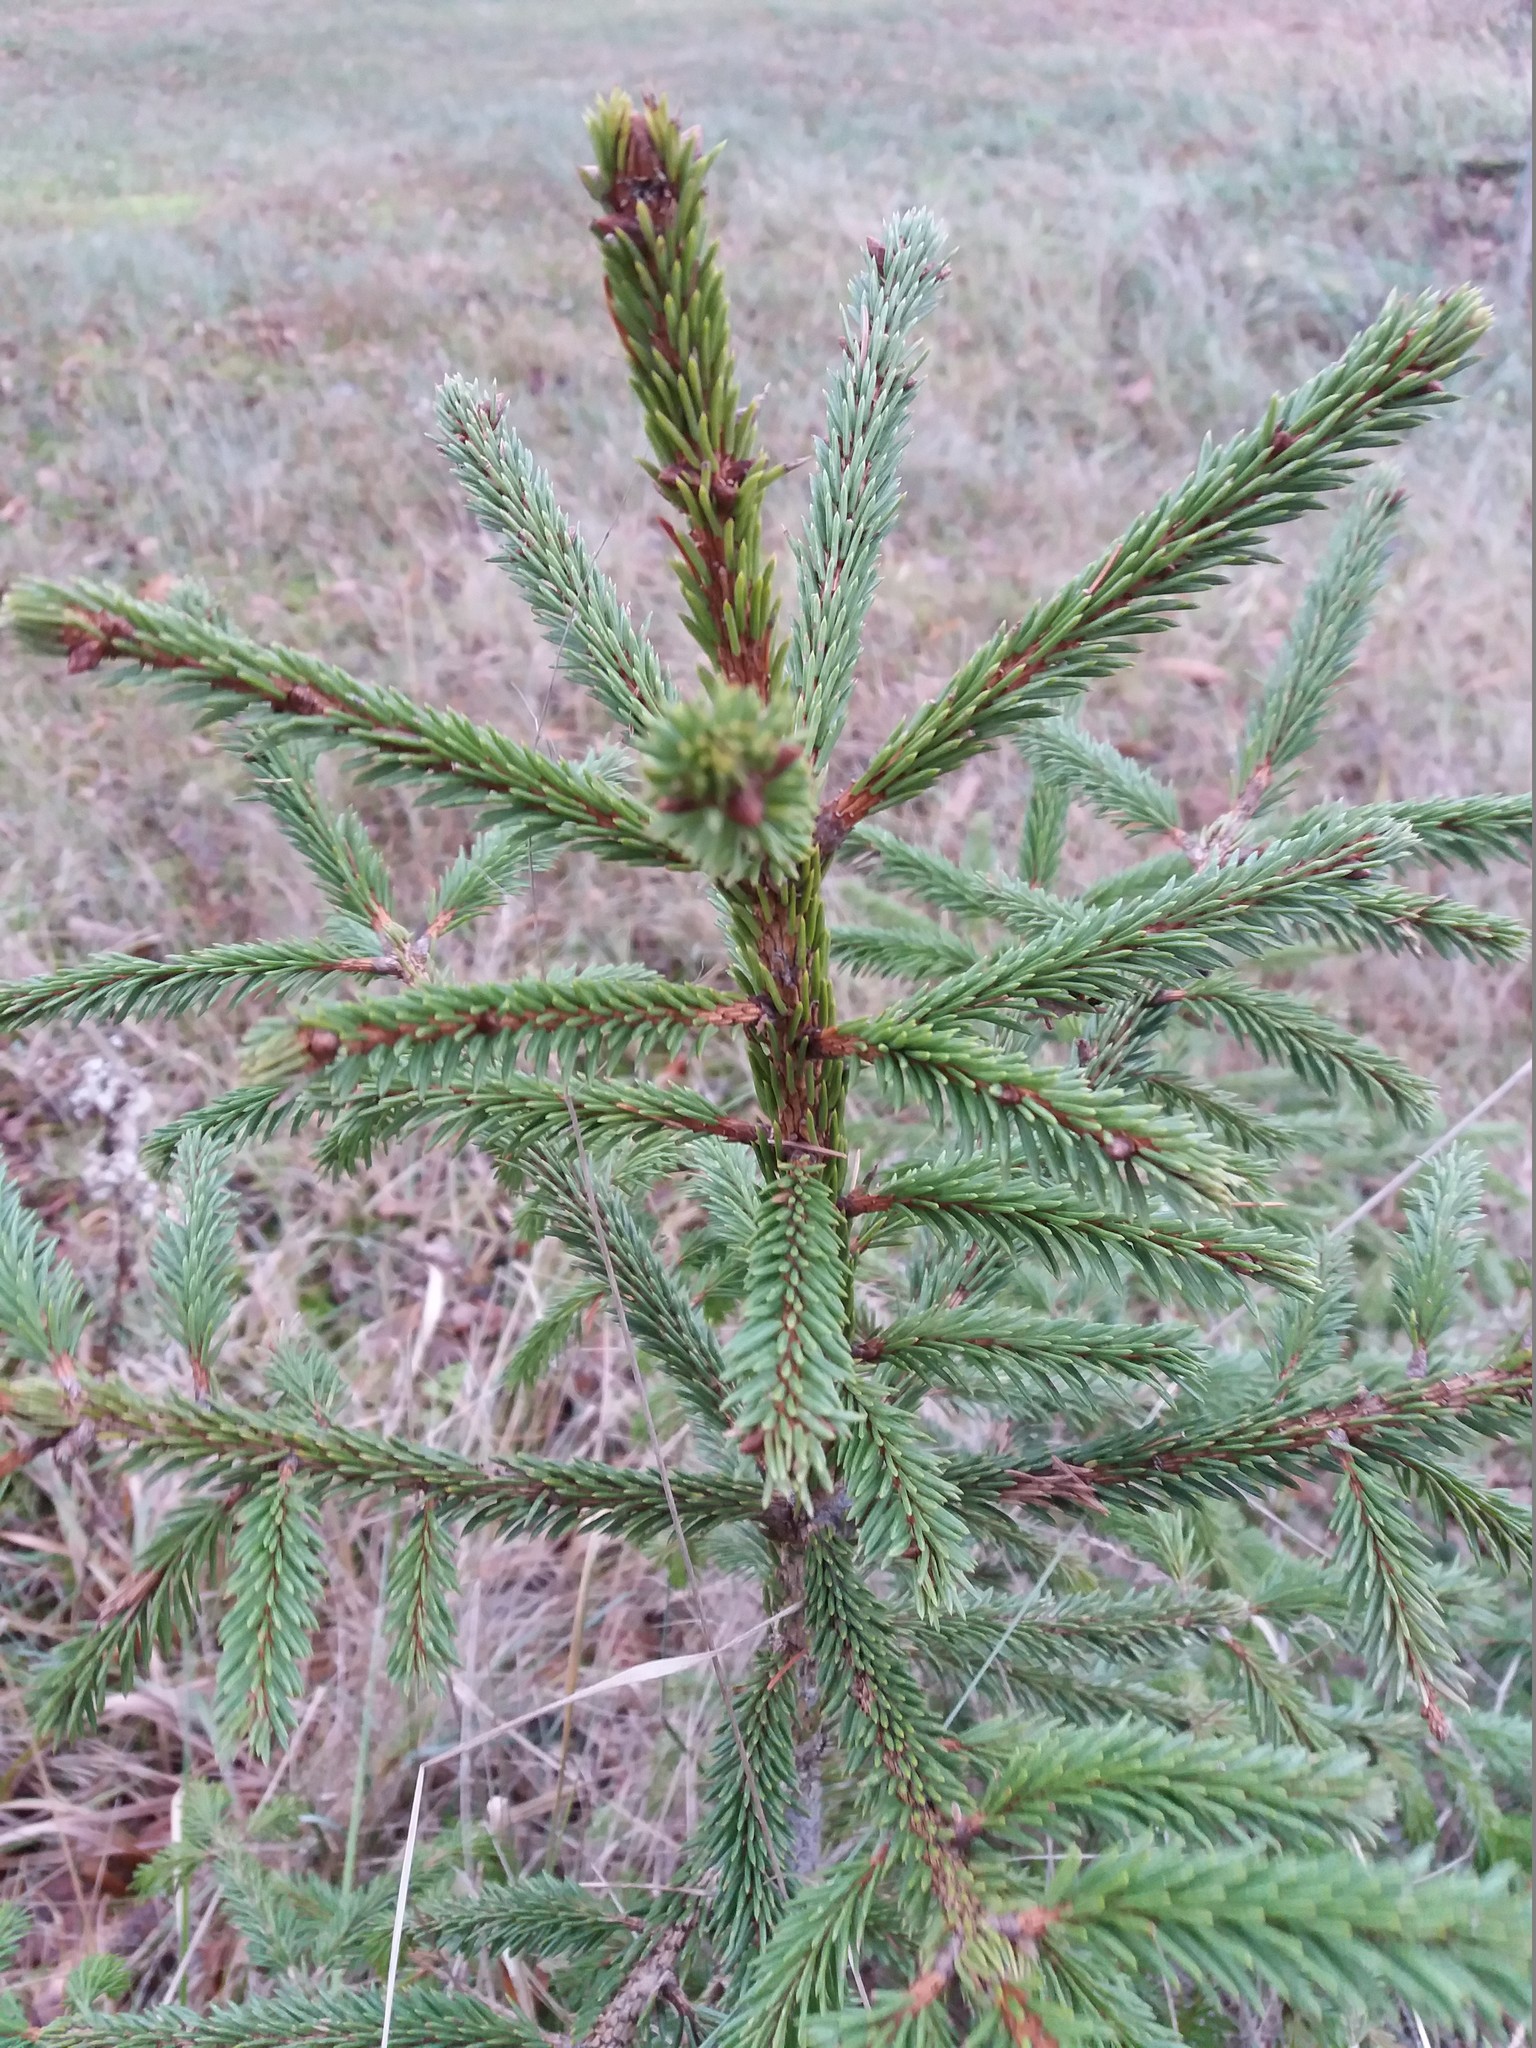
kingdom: Plantae
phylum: Tracheophyta
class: Pinopsida
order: Pinales
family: Pinaceae
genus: Picea
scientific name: Picea abies
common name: Norway spruce
